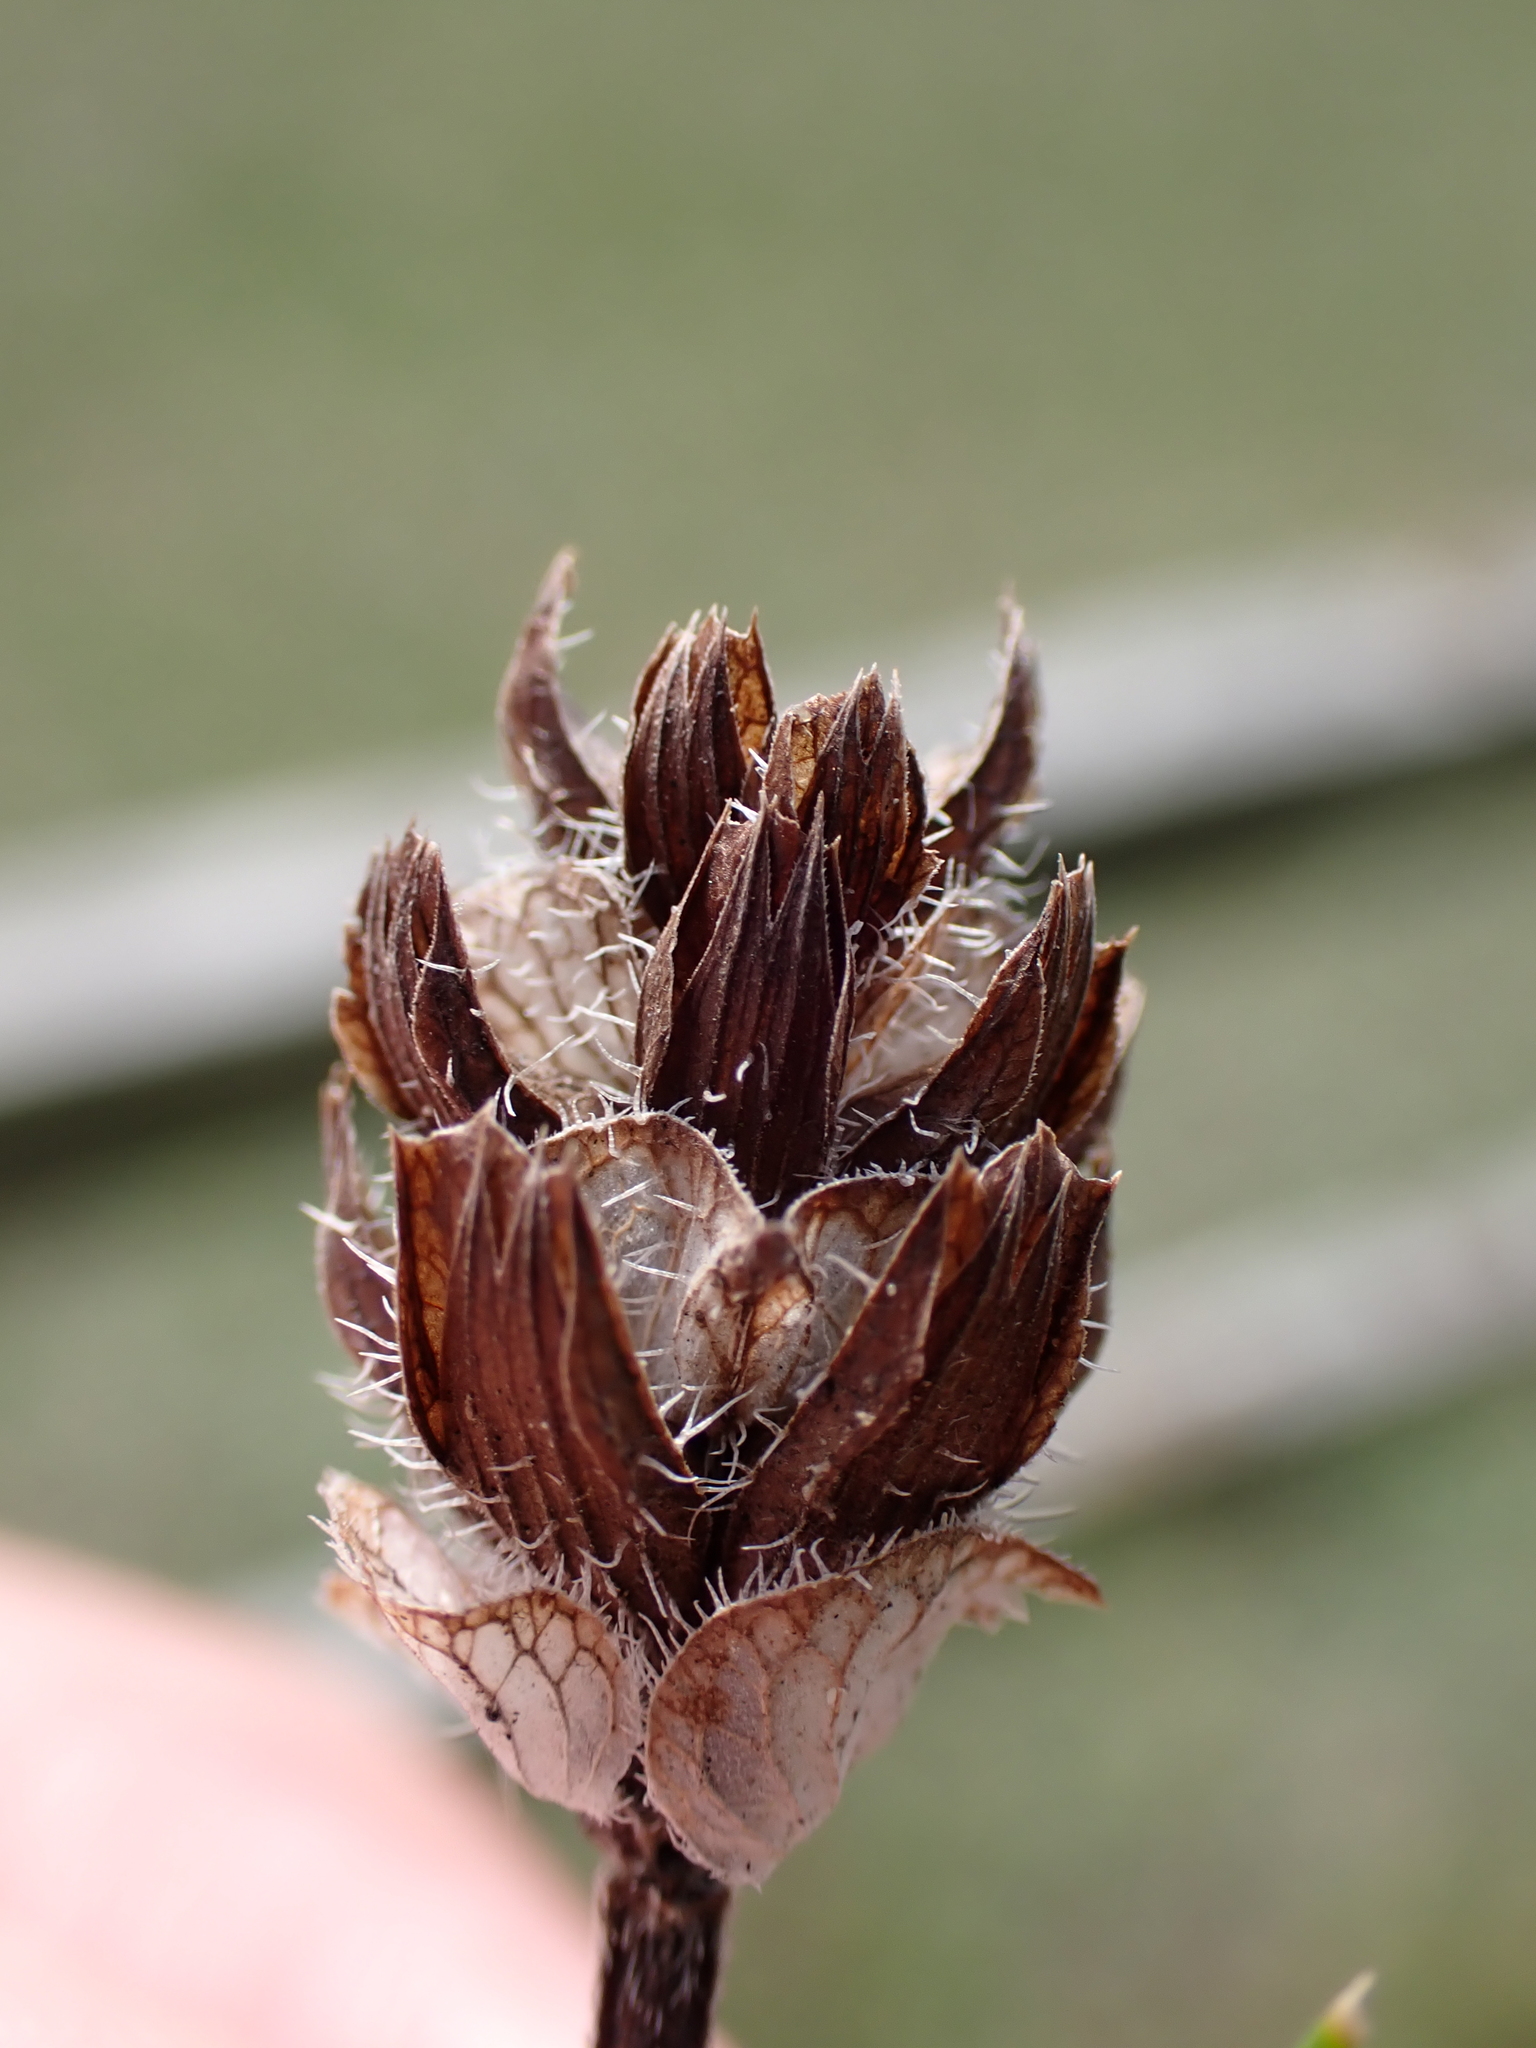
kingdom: Plantae
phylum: Tracheophyta
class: Magnoliopsida
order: Lamiales
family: Lamiaceae
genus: Prunella
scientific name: Prunella vulgaris
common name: Heal-all
